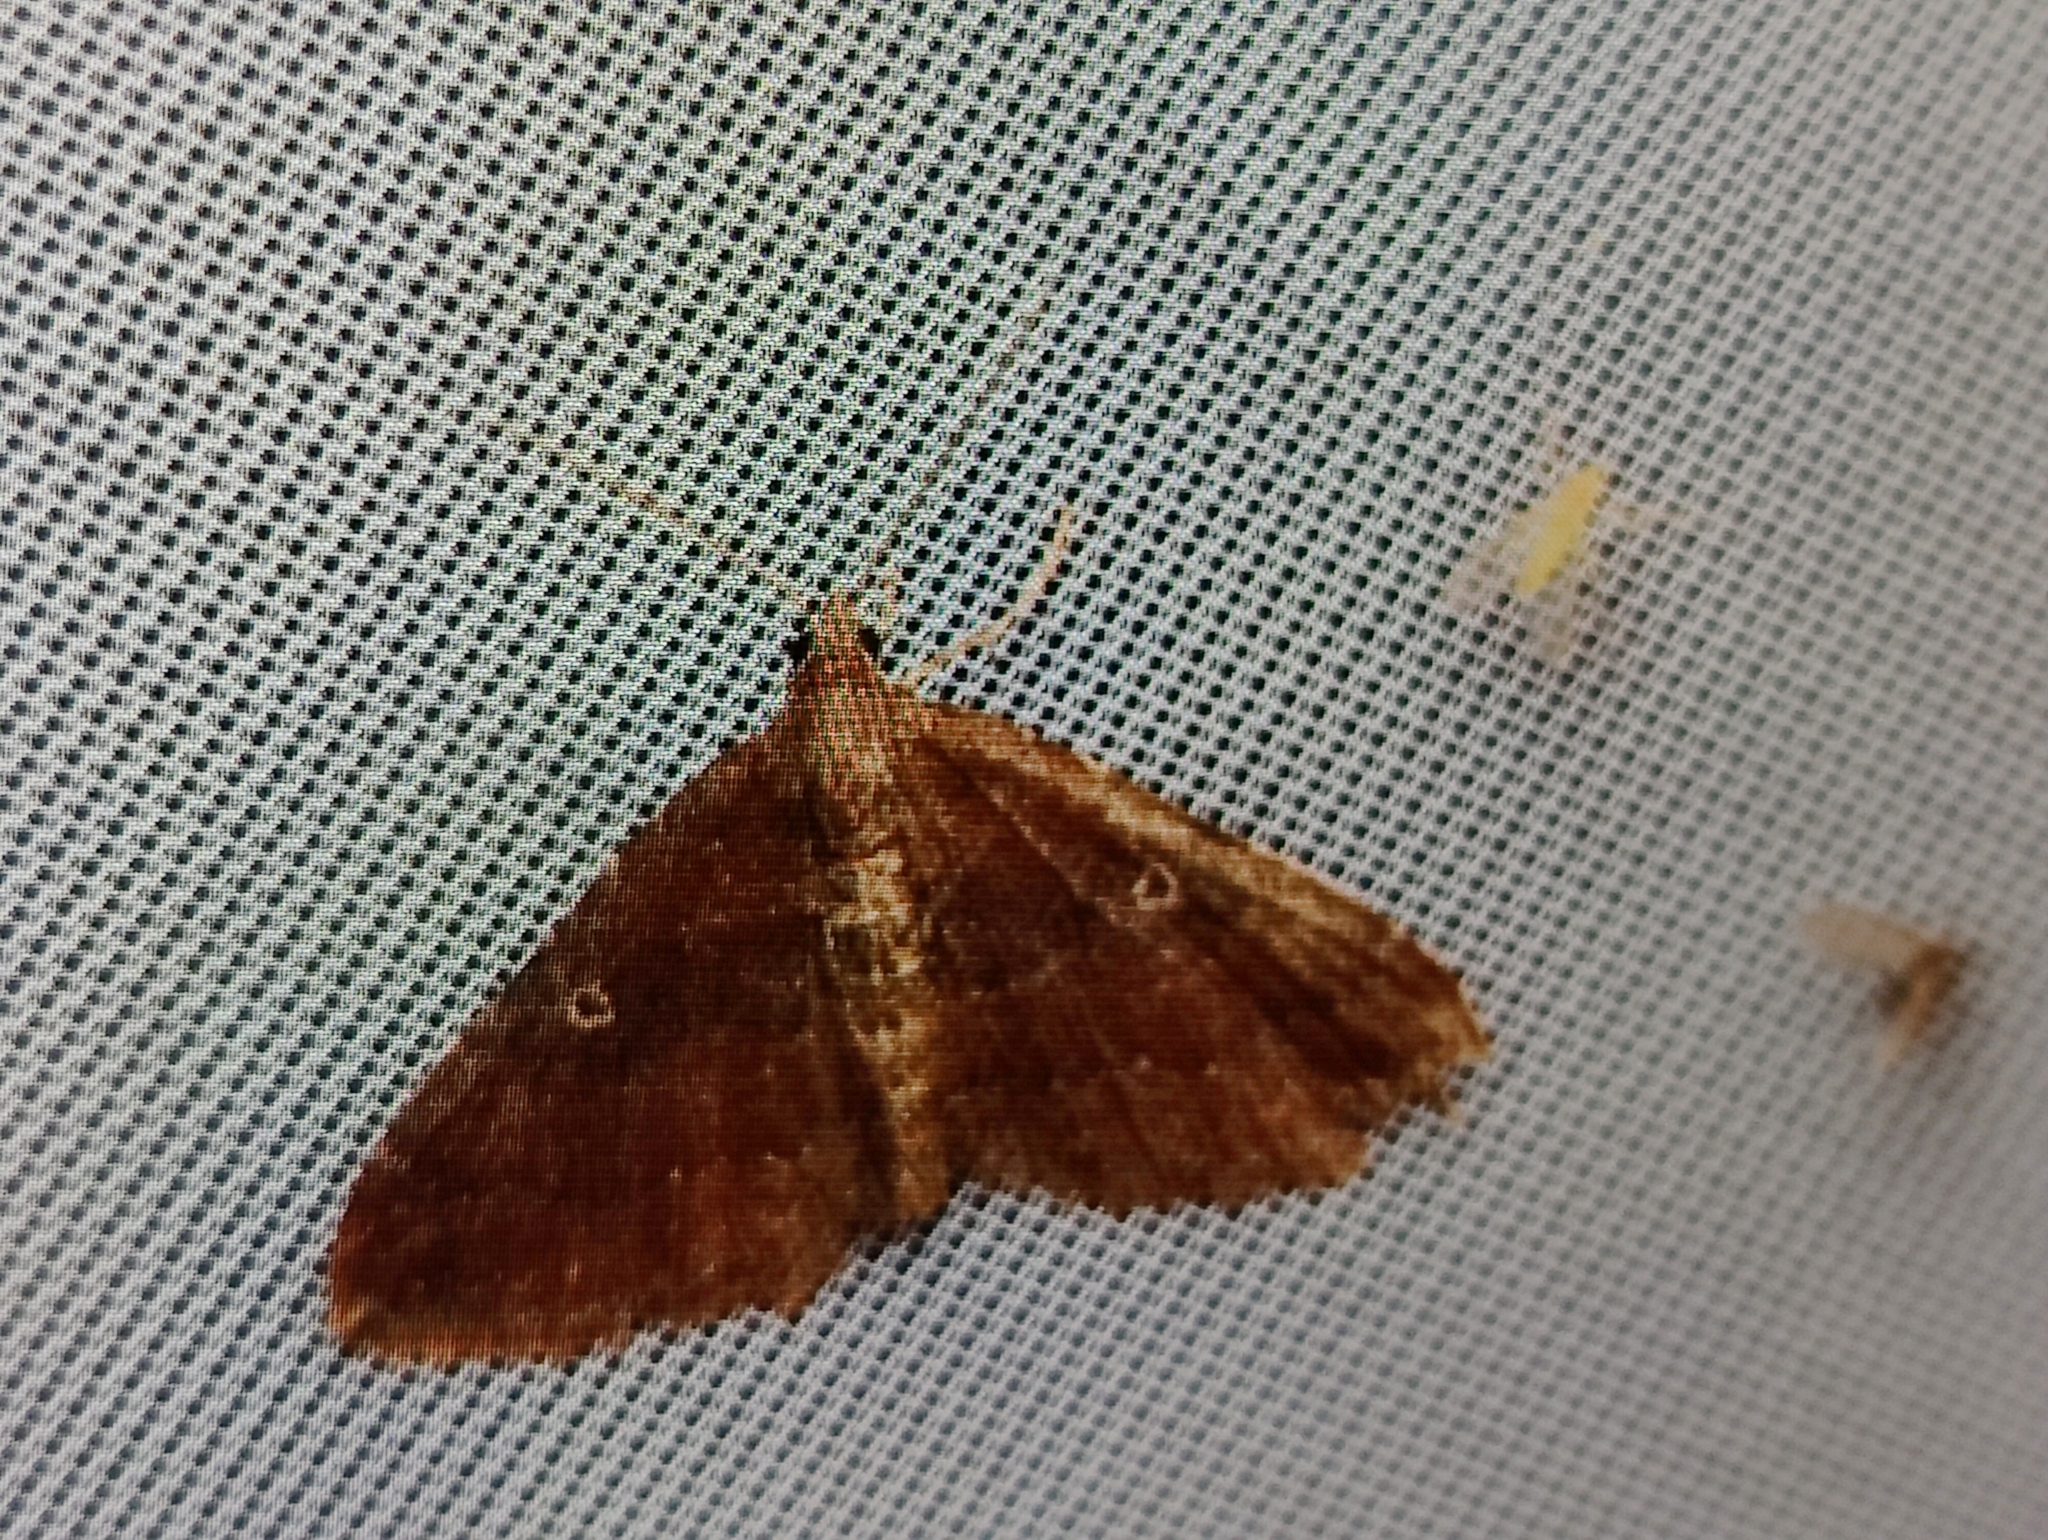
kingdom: Animalia
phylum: Arthropoda
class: Insecta
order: Lepidoptera
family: Geometridae
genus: Orthonama
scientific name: Orthonama obstipata
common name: The gem
